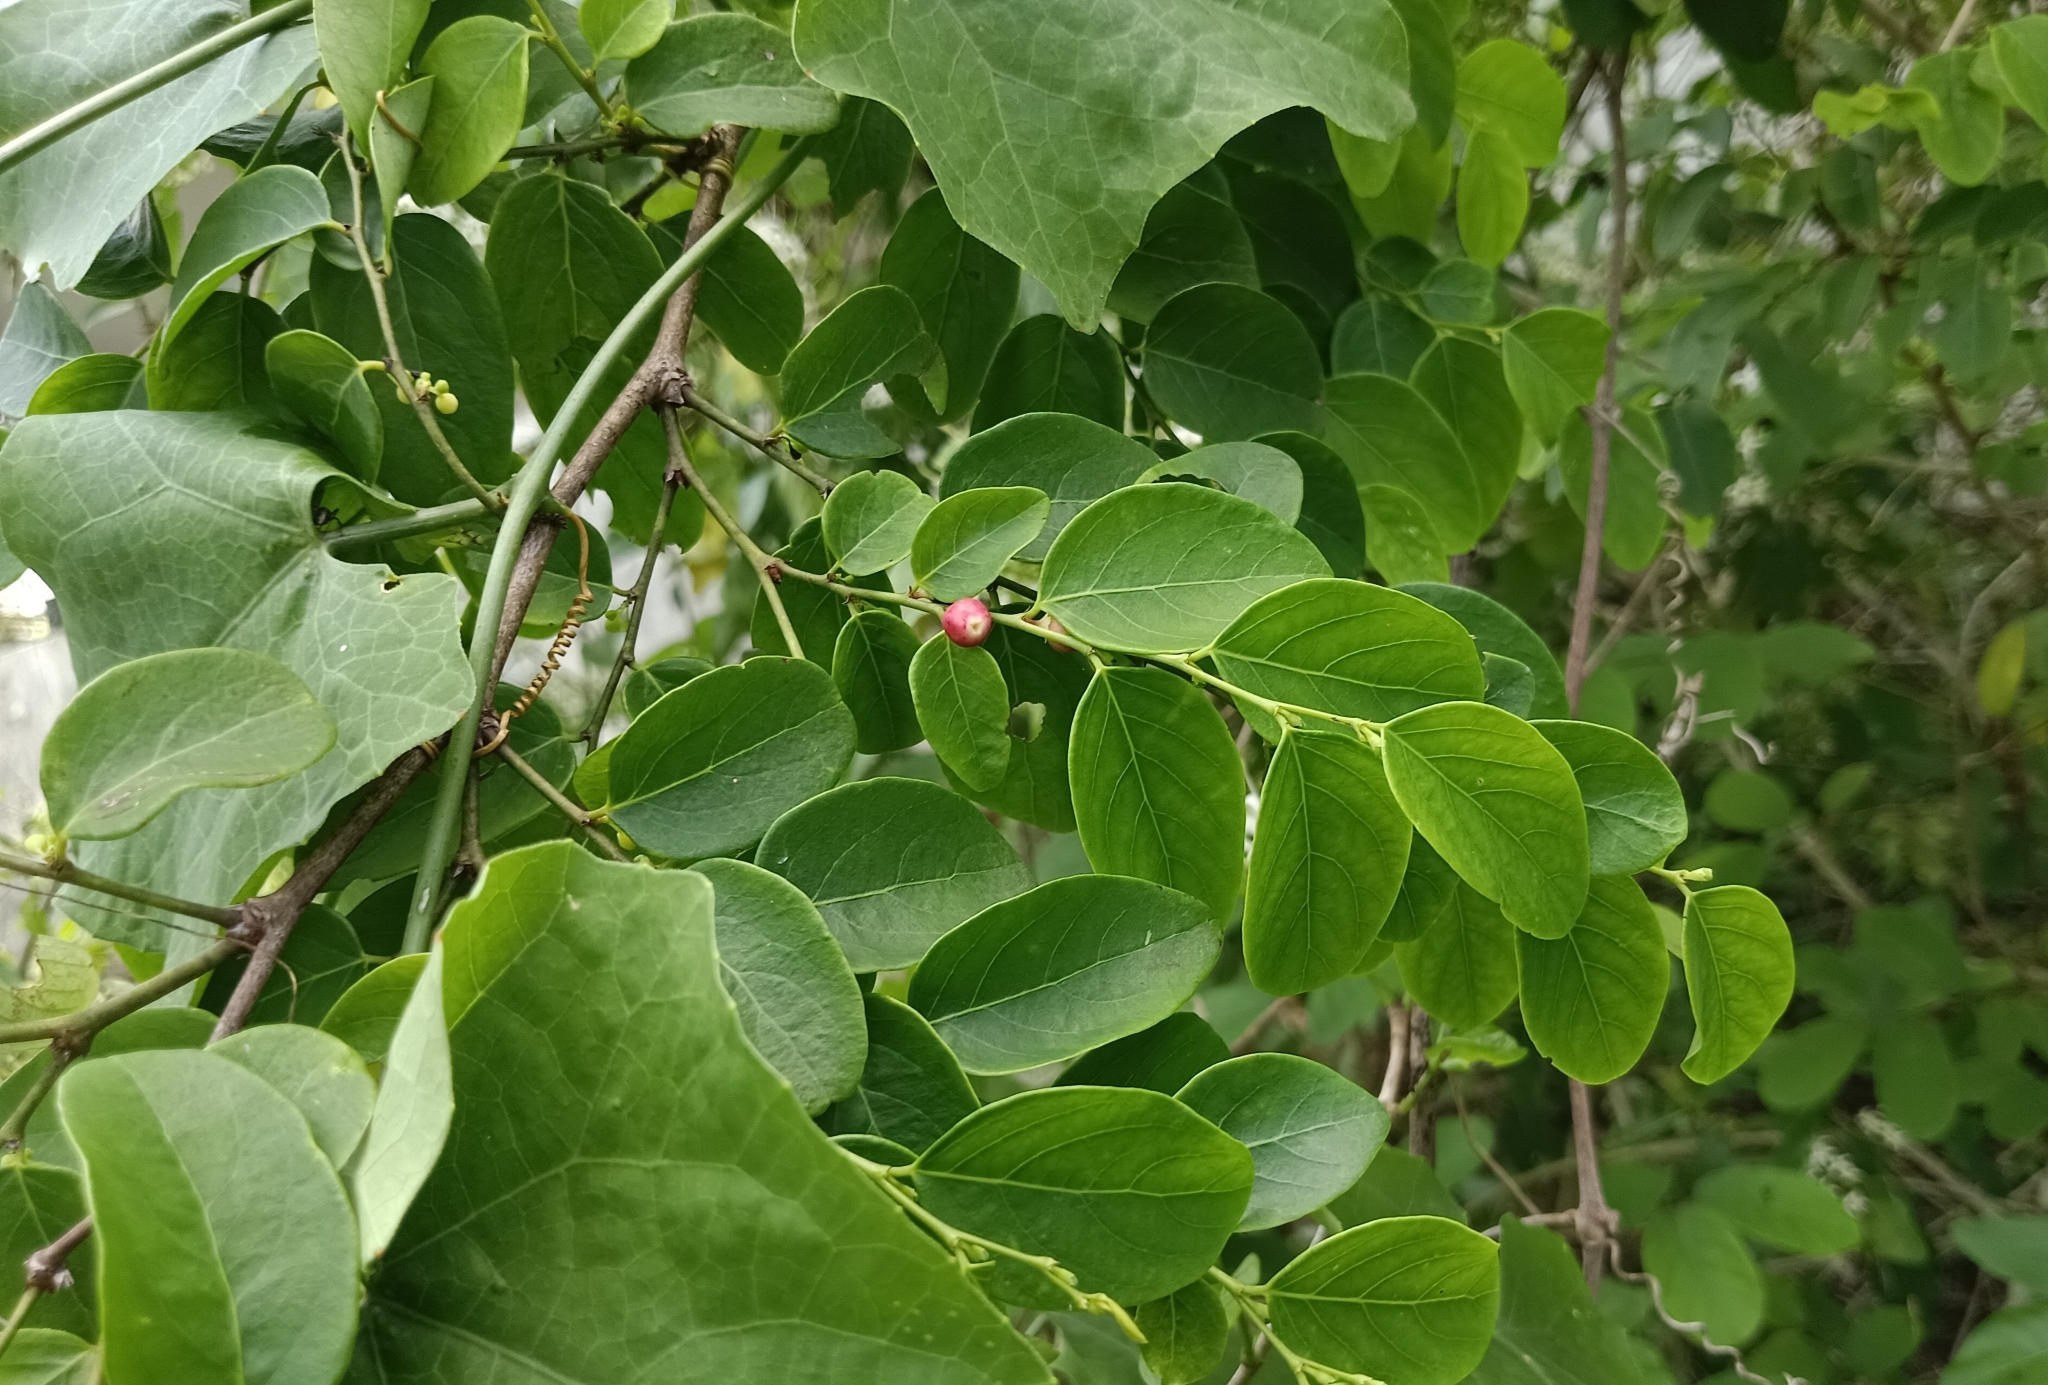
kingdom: Plantae
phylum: Tracheophyta
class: Magnoliopsida
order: Malpighiales
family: Phyllanthaceae
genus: Breynia
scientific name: Breynia vitis-idaea
